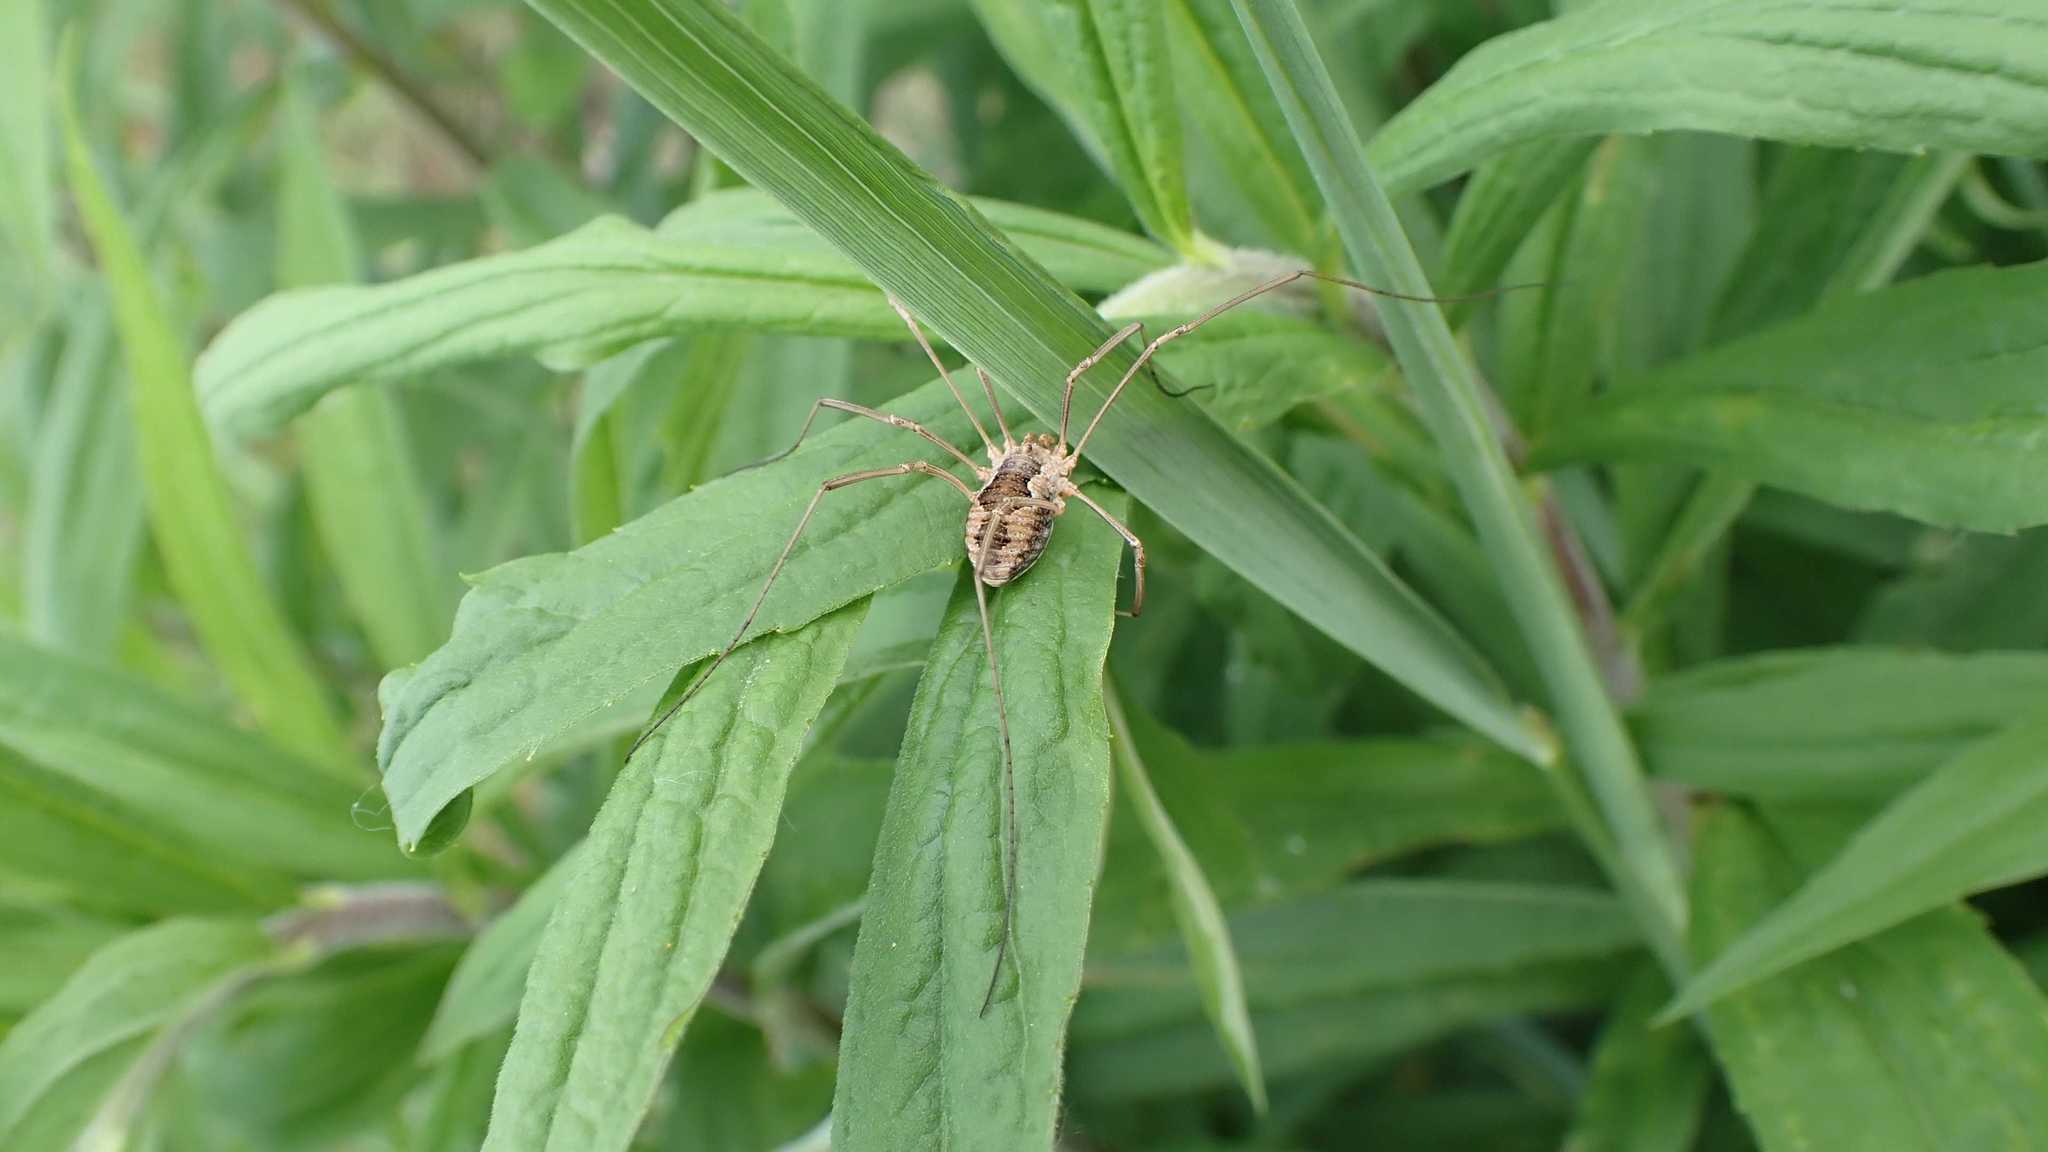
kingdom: Animalia
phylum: Arthropoda
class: Arachnida
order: Opiliones
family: Phalangiidae
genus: Phalangium
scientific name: Phalangium opilio
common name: Daddy longleg
